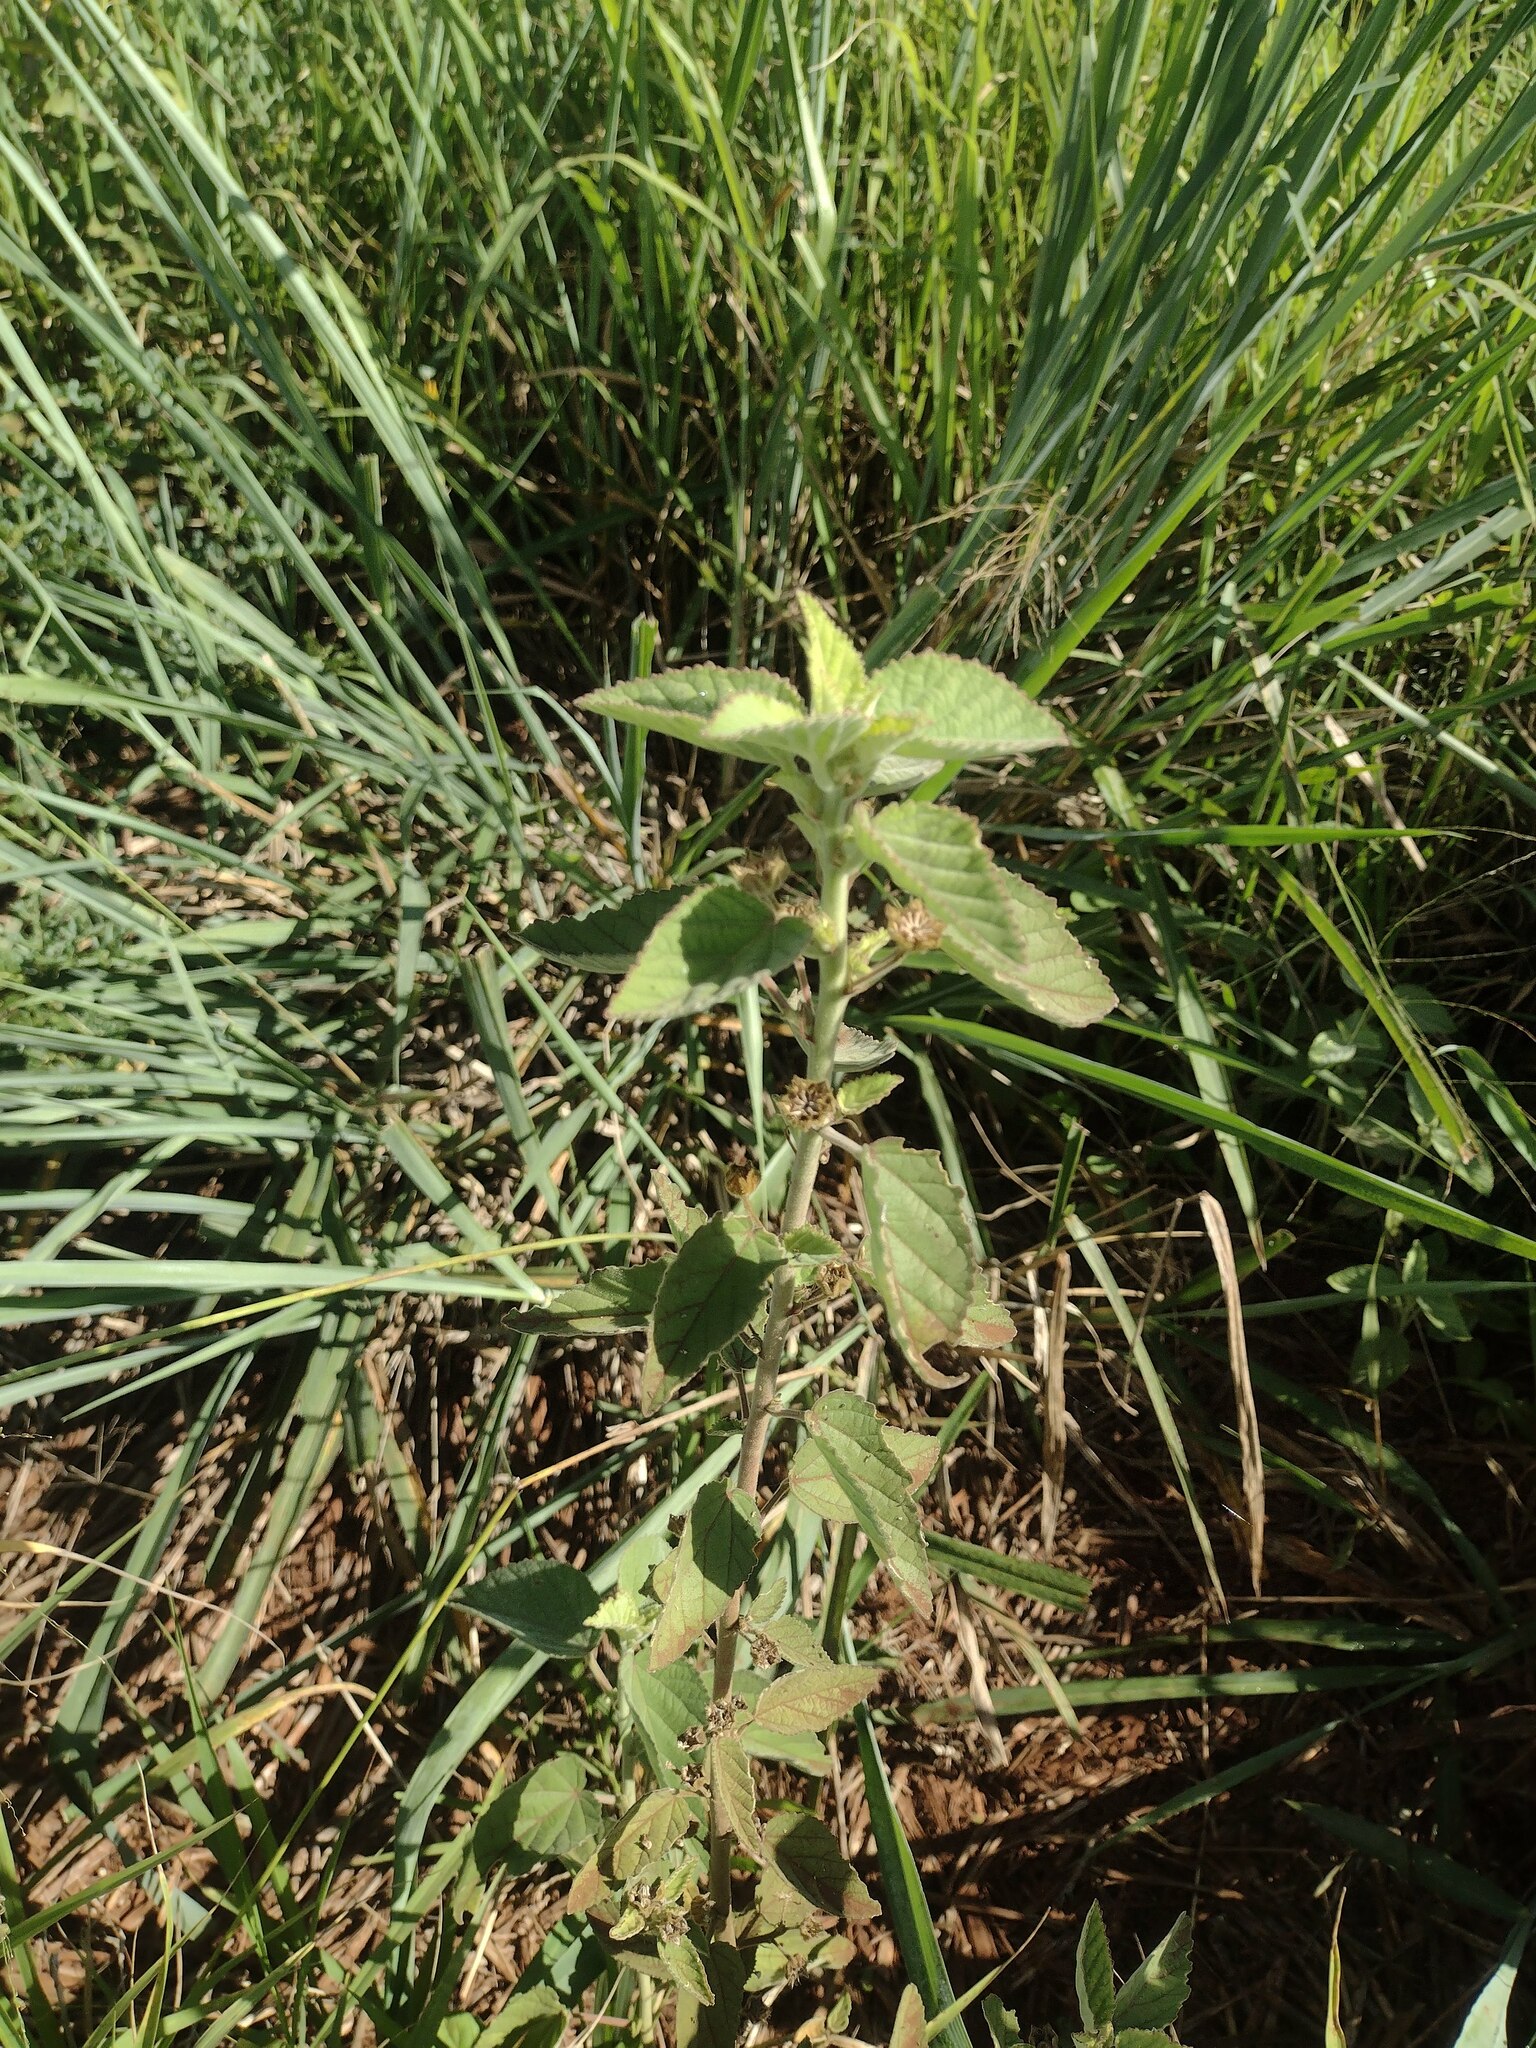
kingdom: Plantae
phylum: Tracheophyta
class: Magnoliopsida
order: Malvales
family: Malvaceae
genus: Sida
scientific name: Sida cordifolia
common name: Ilima
